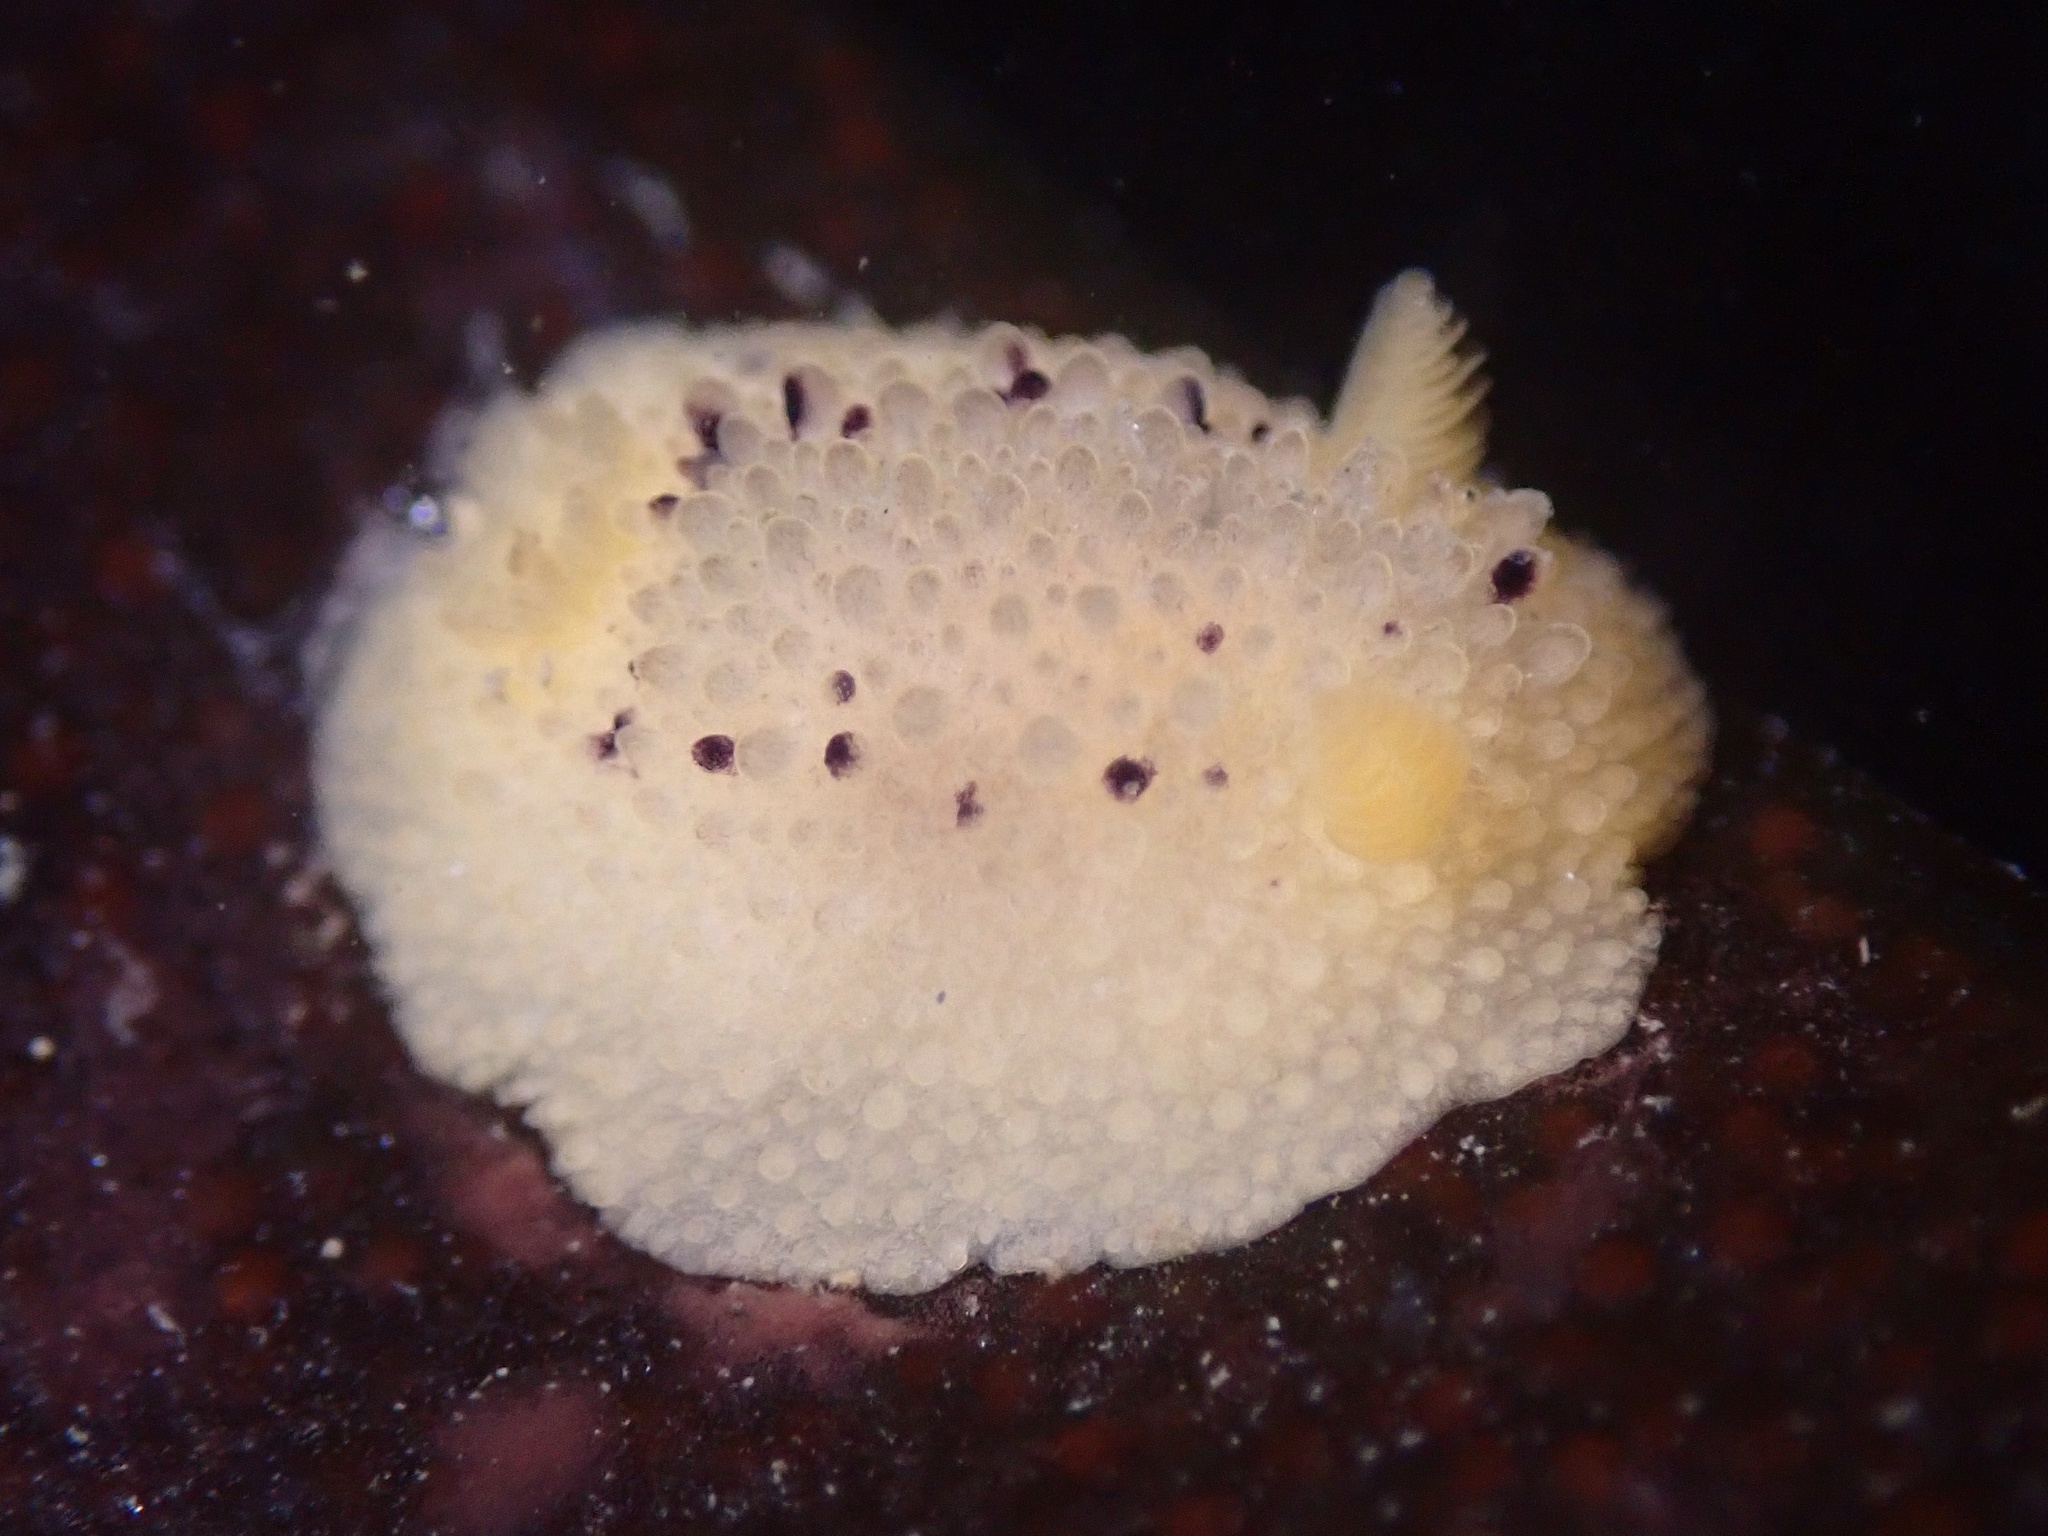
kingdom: Animalia
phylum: Mollusca
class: Gastropoda
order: Nudibranchia
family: Dorididae
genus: Doris
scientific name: Doris montereyensis
